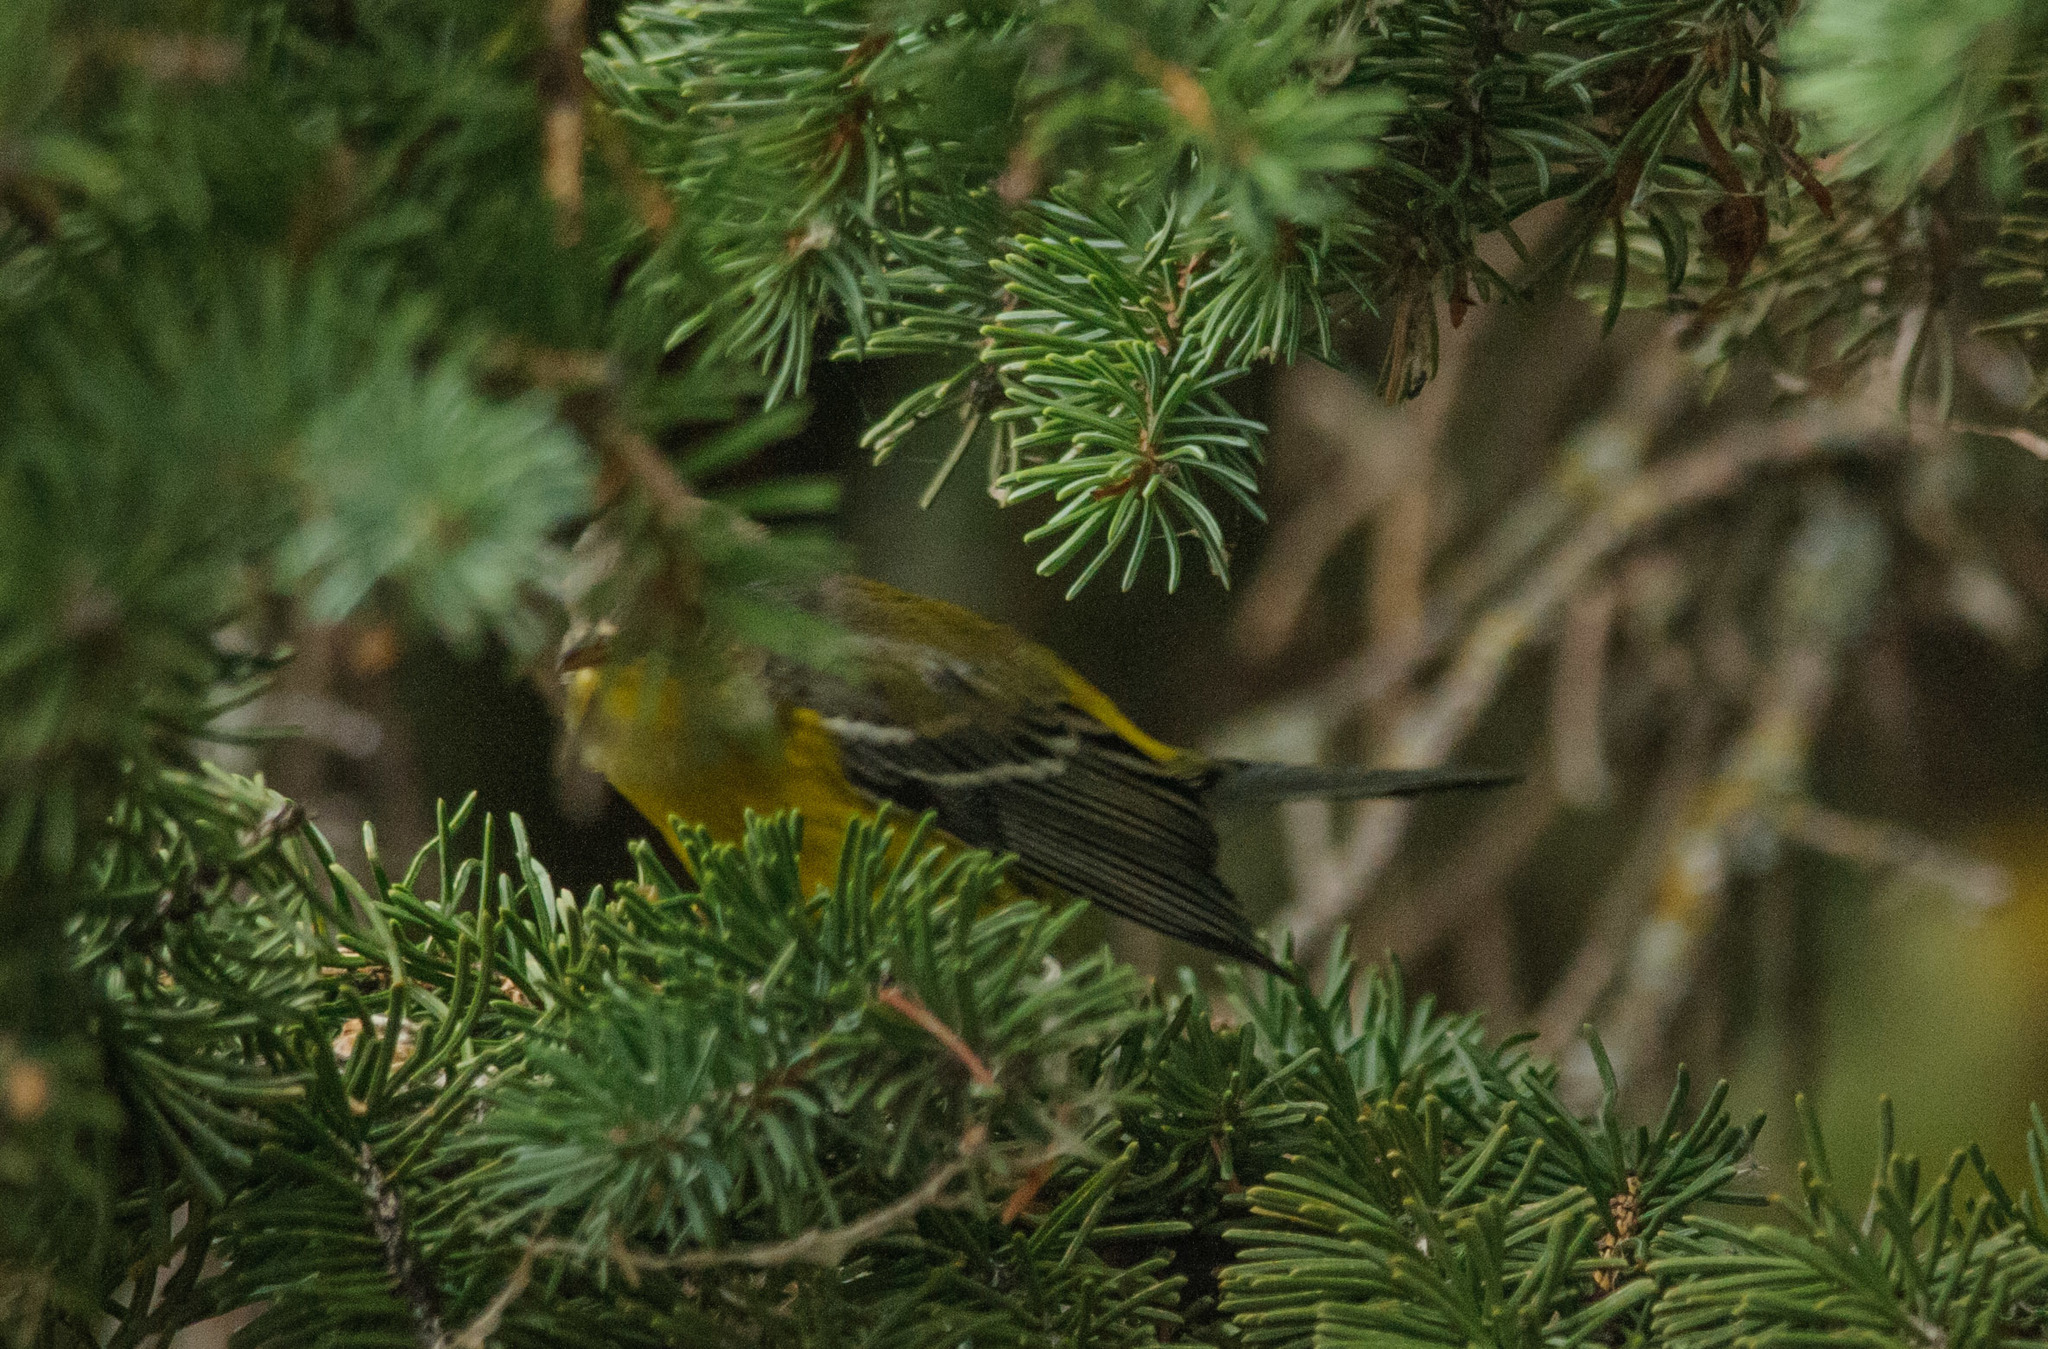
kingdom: Animalia
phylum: Chordata
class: Aves
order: Passeriformes
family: Parulidae
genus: Setophaga
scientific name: Setophaga magnolia
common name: Magnolia warbler
